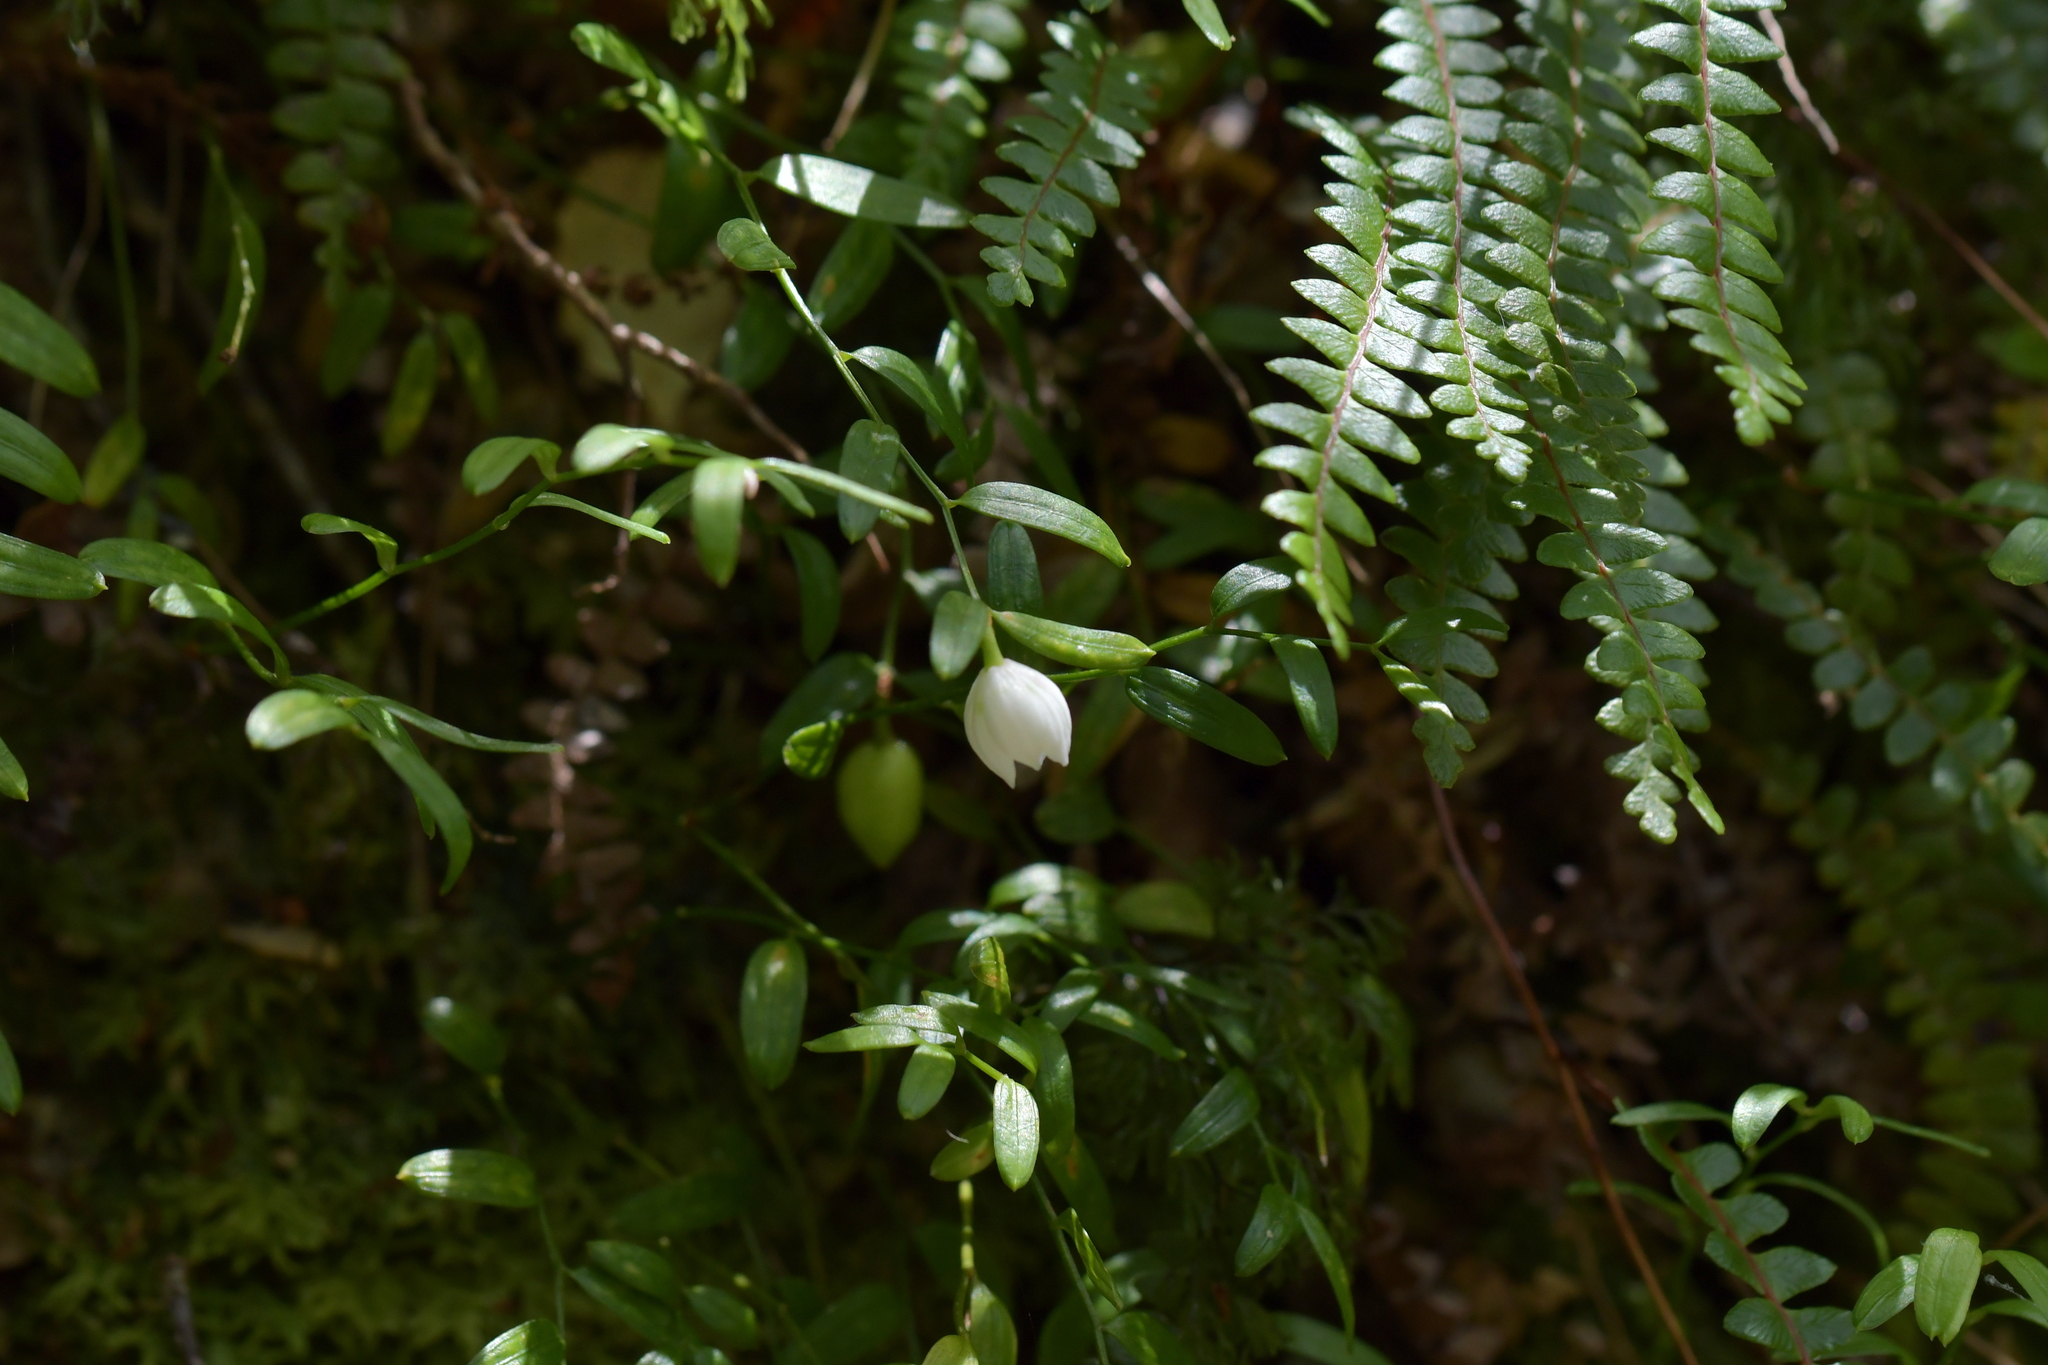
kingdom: Plantae
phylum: Tracheophyta
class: Liliopsida
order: Liliales
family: Alstroemeriaceae
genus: Luzuriaga
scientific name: Luzuriaga parviflora
